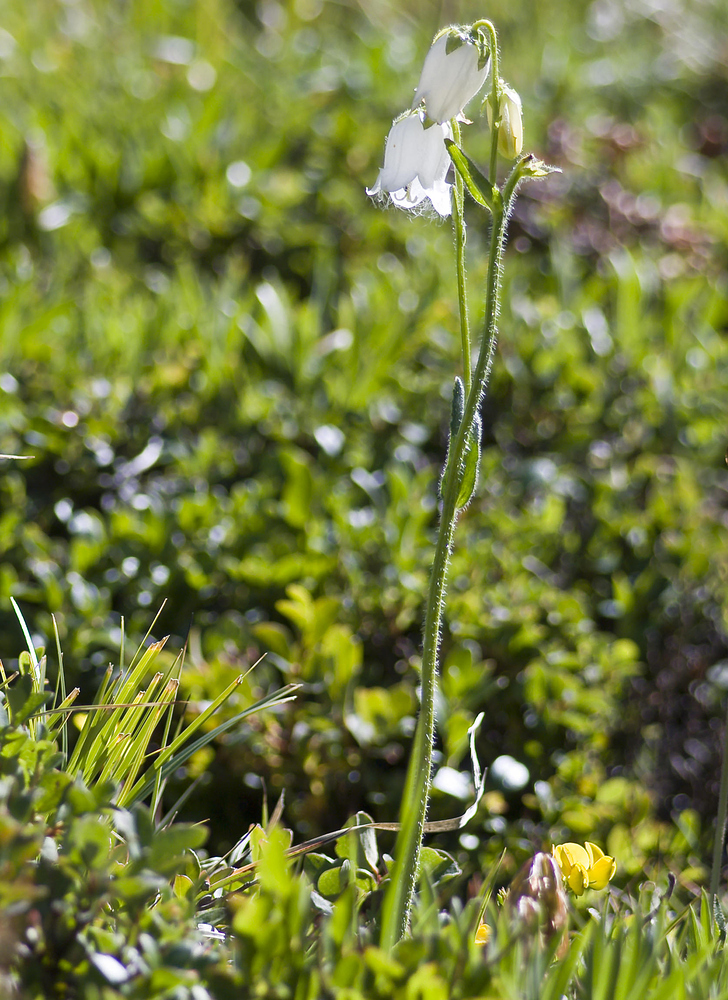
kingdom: Plantae
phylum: Tracheophyta
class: Magnoliopsida
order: Asterales
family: Campanulaceae
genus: Campanula
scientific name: Campanula barbata
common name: Bearded bellflower
